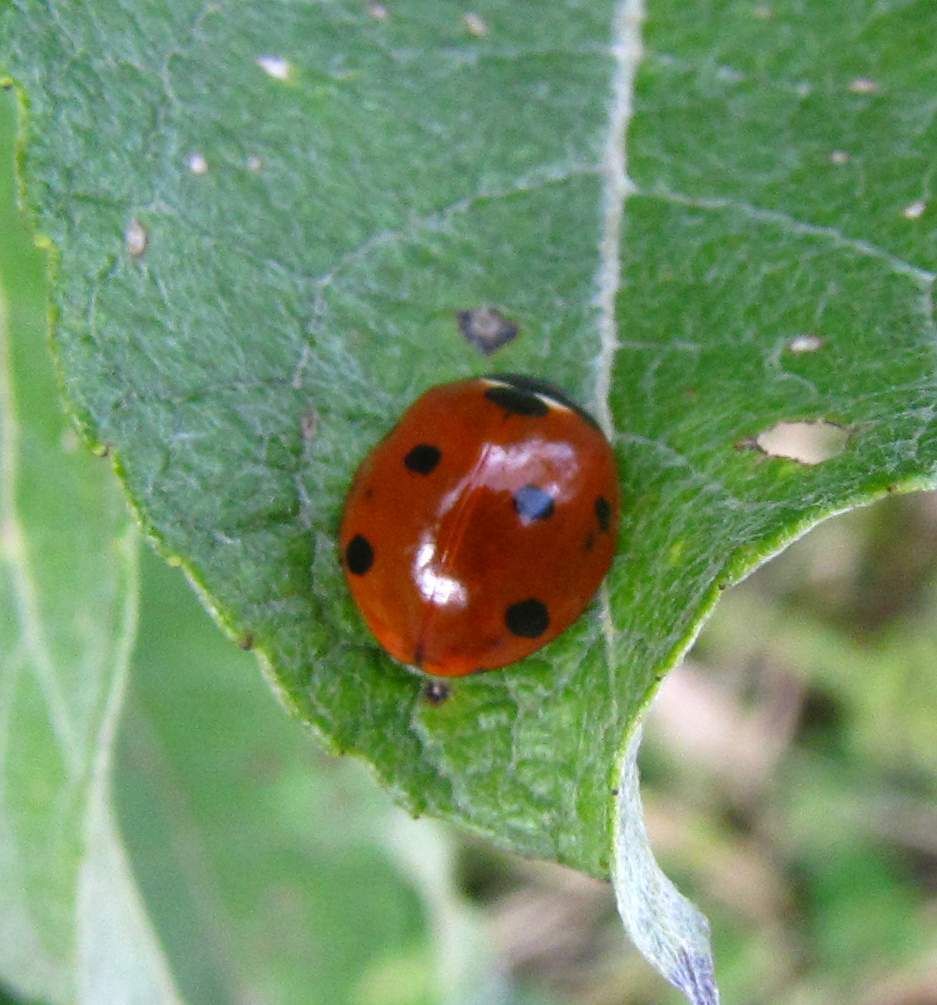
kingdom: Animalia
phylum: Arthropoda
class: Insecta
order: Coleoptera
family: Coccinellidae
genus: Coccinella
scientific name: Coccinella septempunctata
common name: Sevenspotted lady beetle
